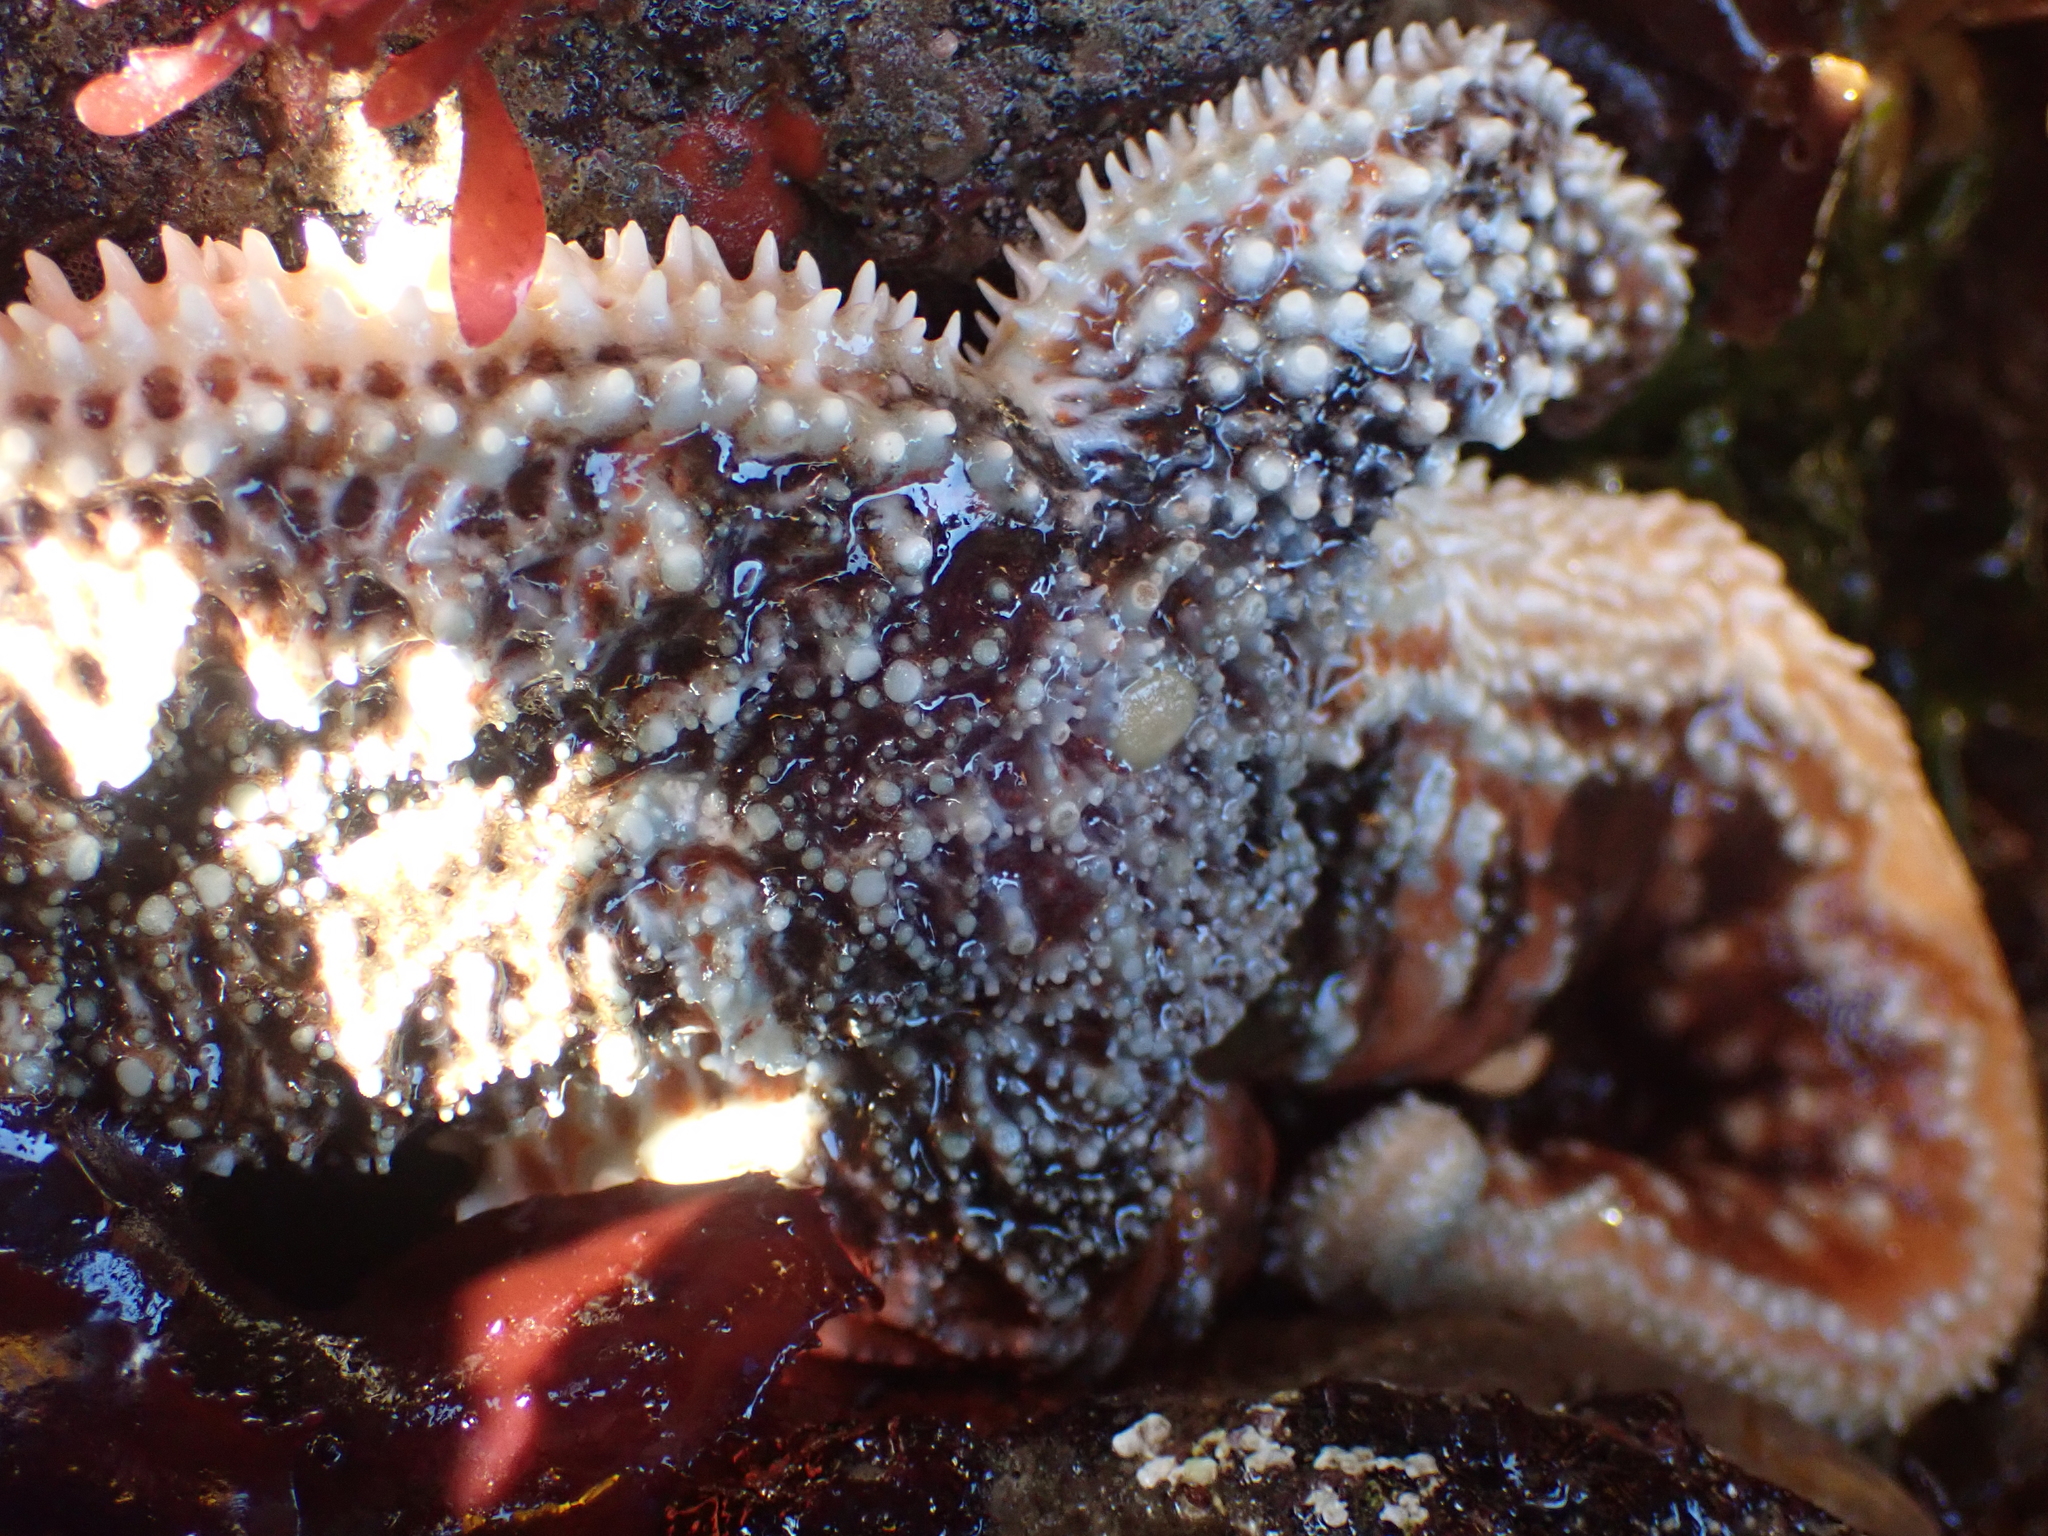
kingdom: Animalia
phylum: Echinodermata
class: Asteroidea
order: Forcipulatida
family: Asteriidae
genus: Evasterias
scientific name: Evasterias troschelii
